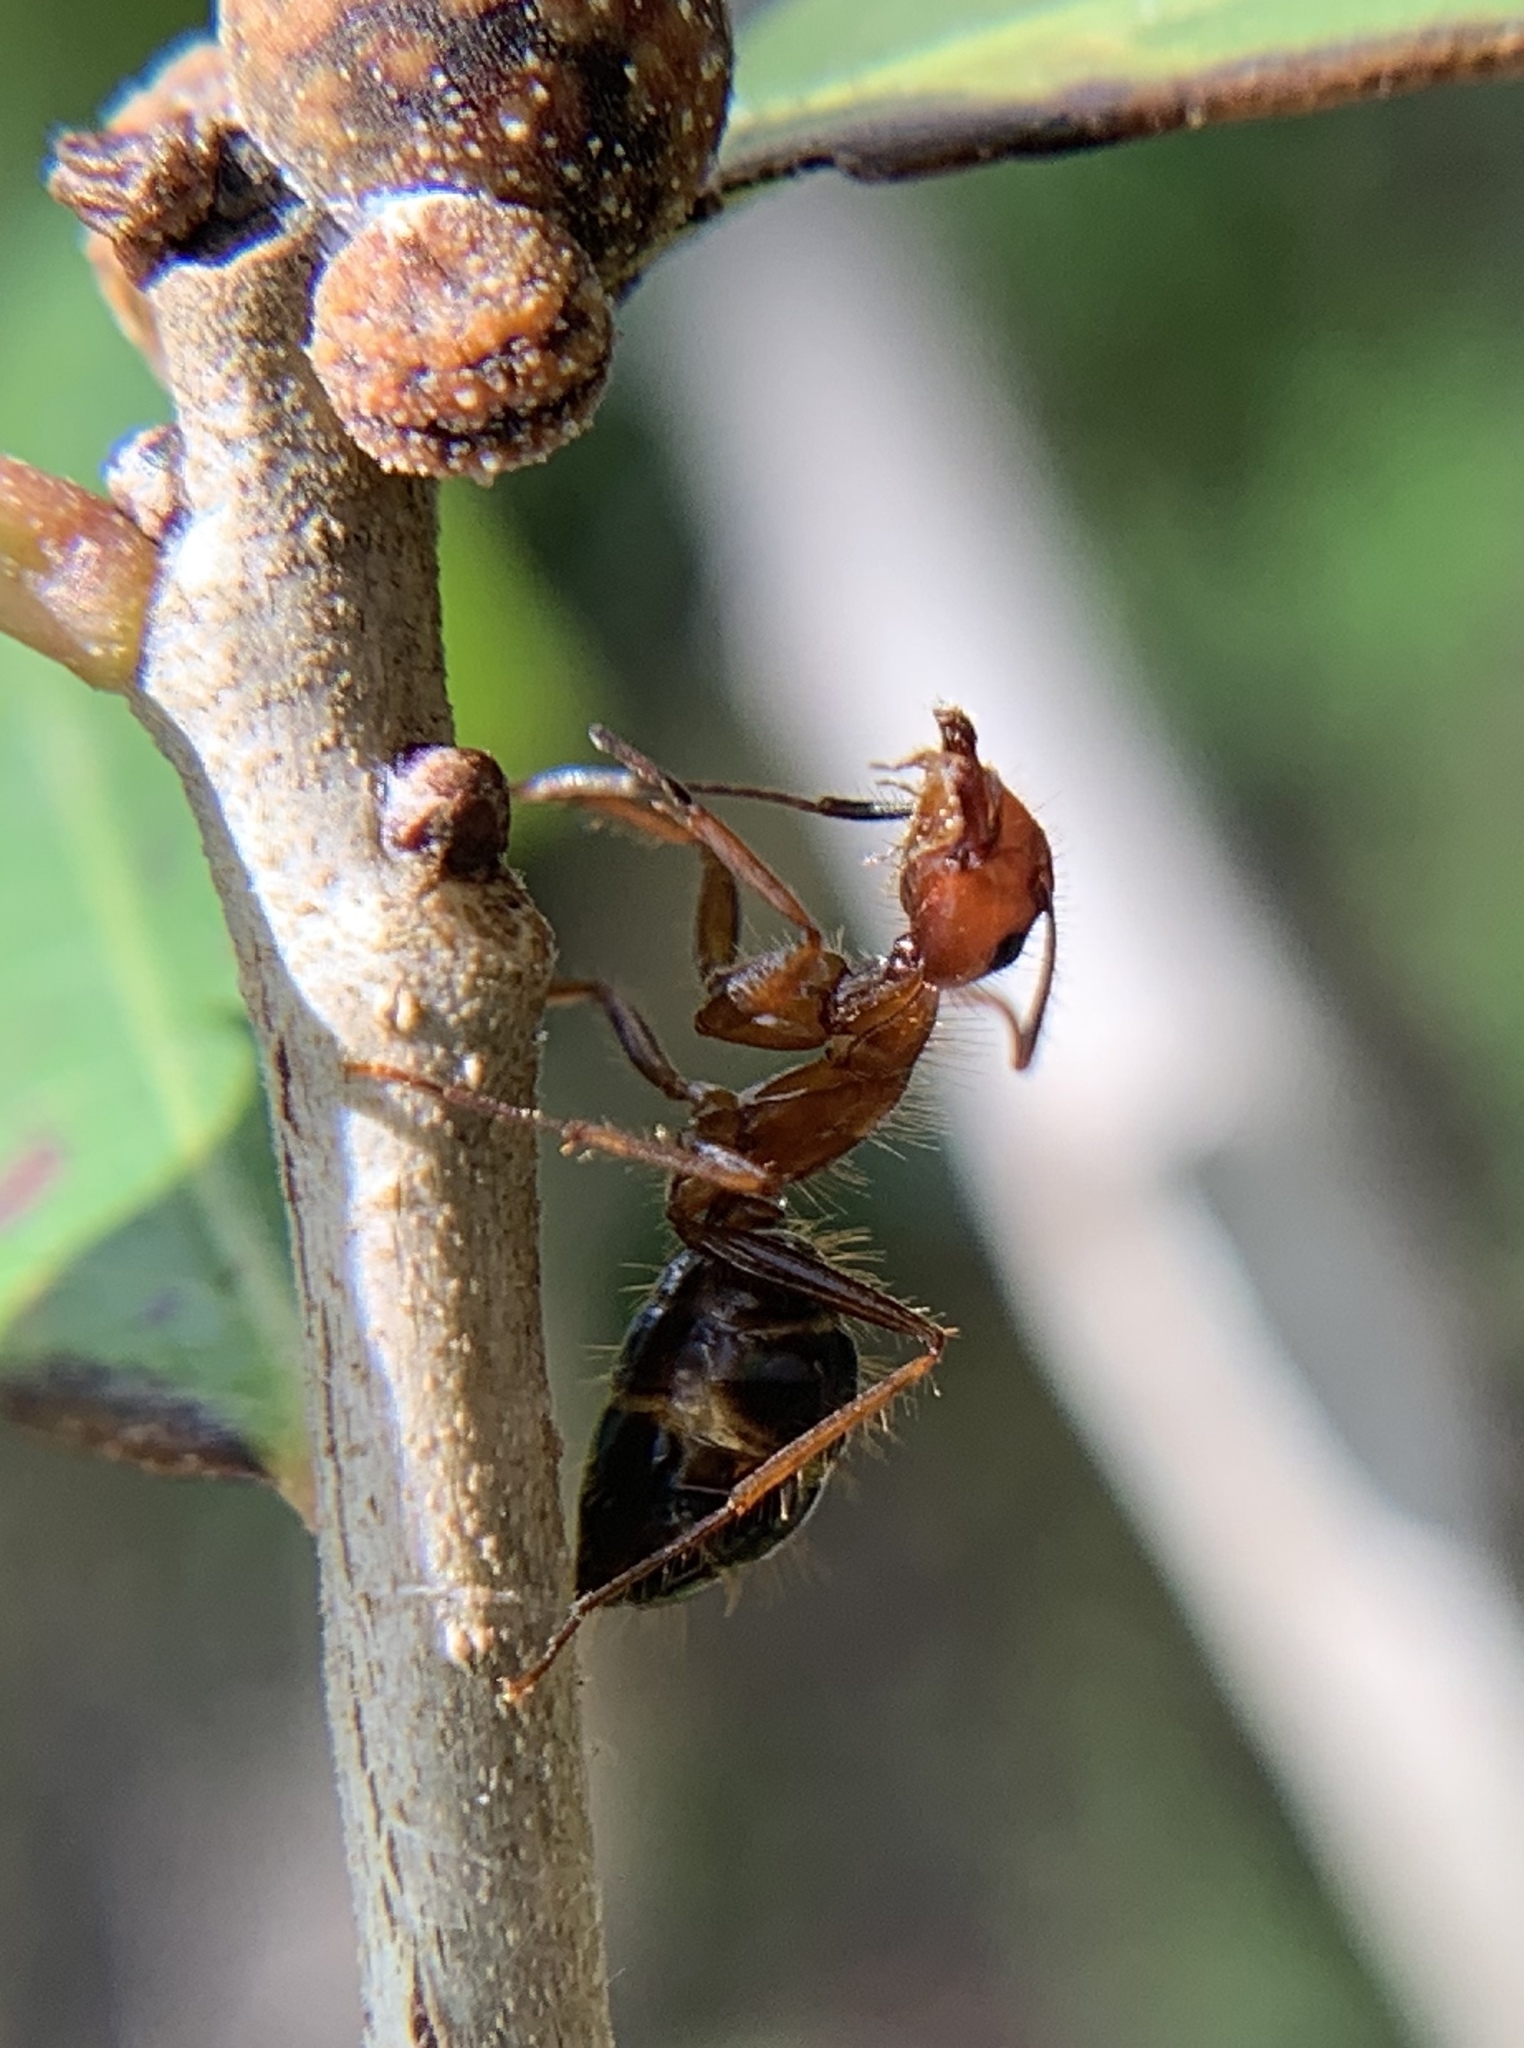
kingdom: Animalia
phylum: Arthropoda
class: Insecta
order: Hymenoptera
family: Formicidae
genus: Camponotus
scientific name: Camponotus floridanus
